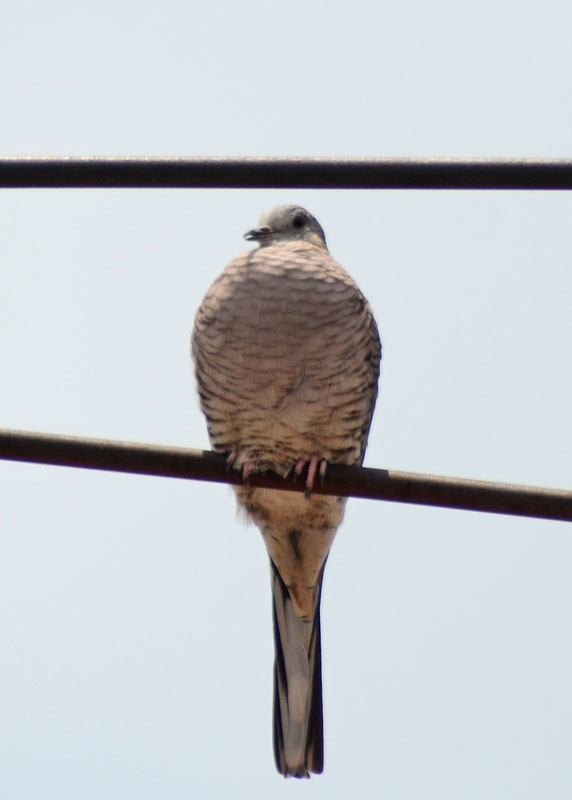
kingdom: Animalia
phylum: Chordata
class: Aves
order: Columbiformes
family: Columbidae
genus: Columbina
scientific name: Columbina inca
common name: Inca dove
